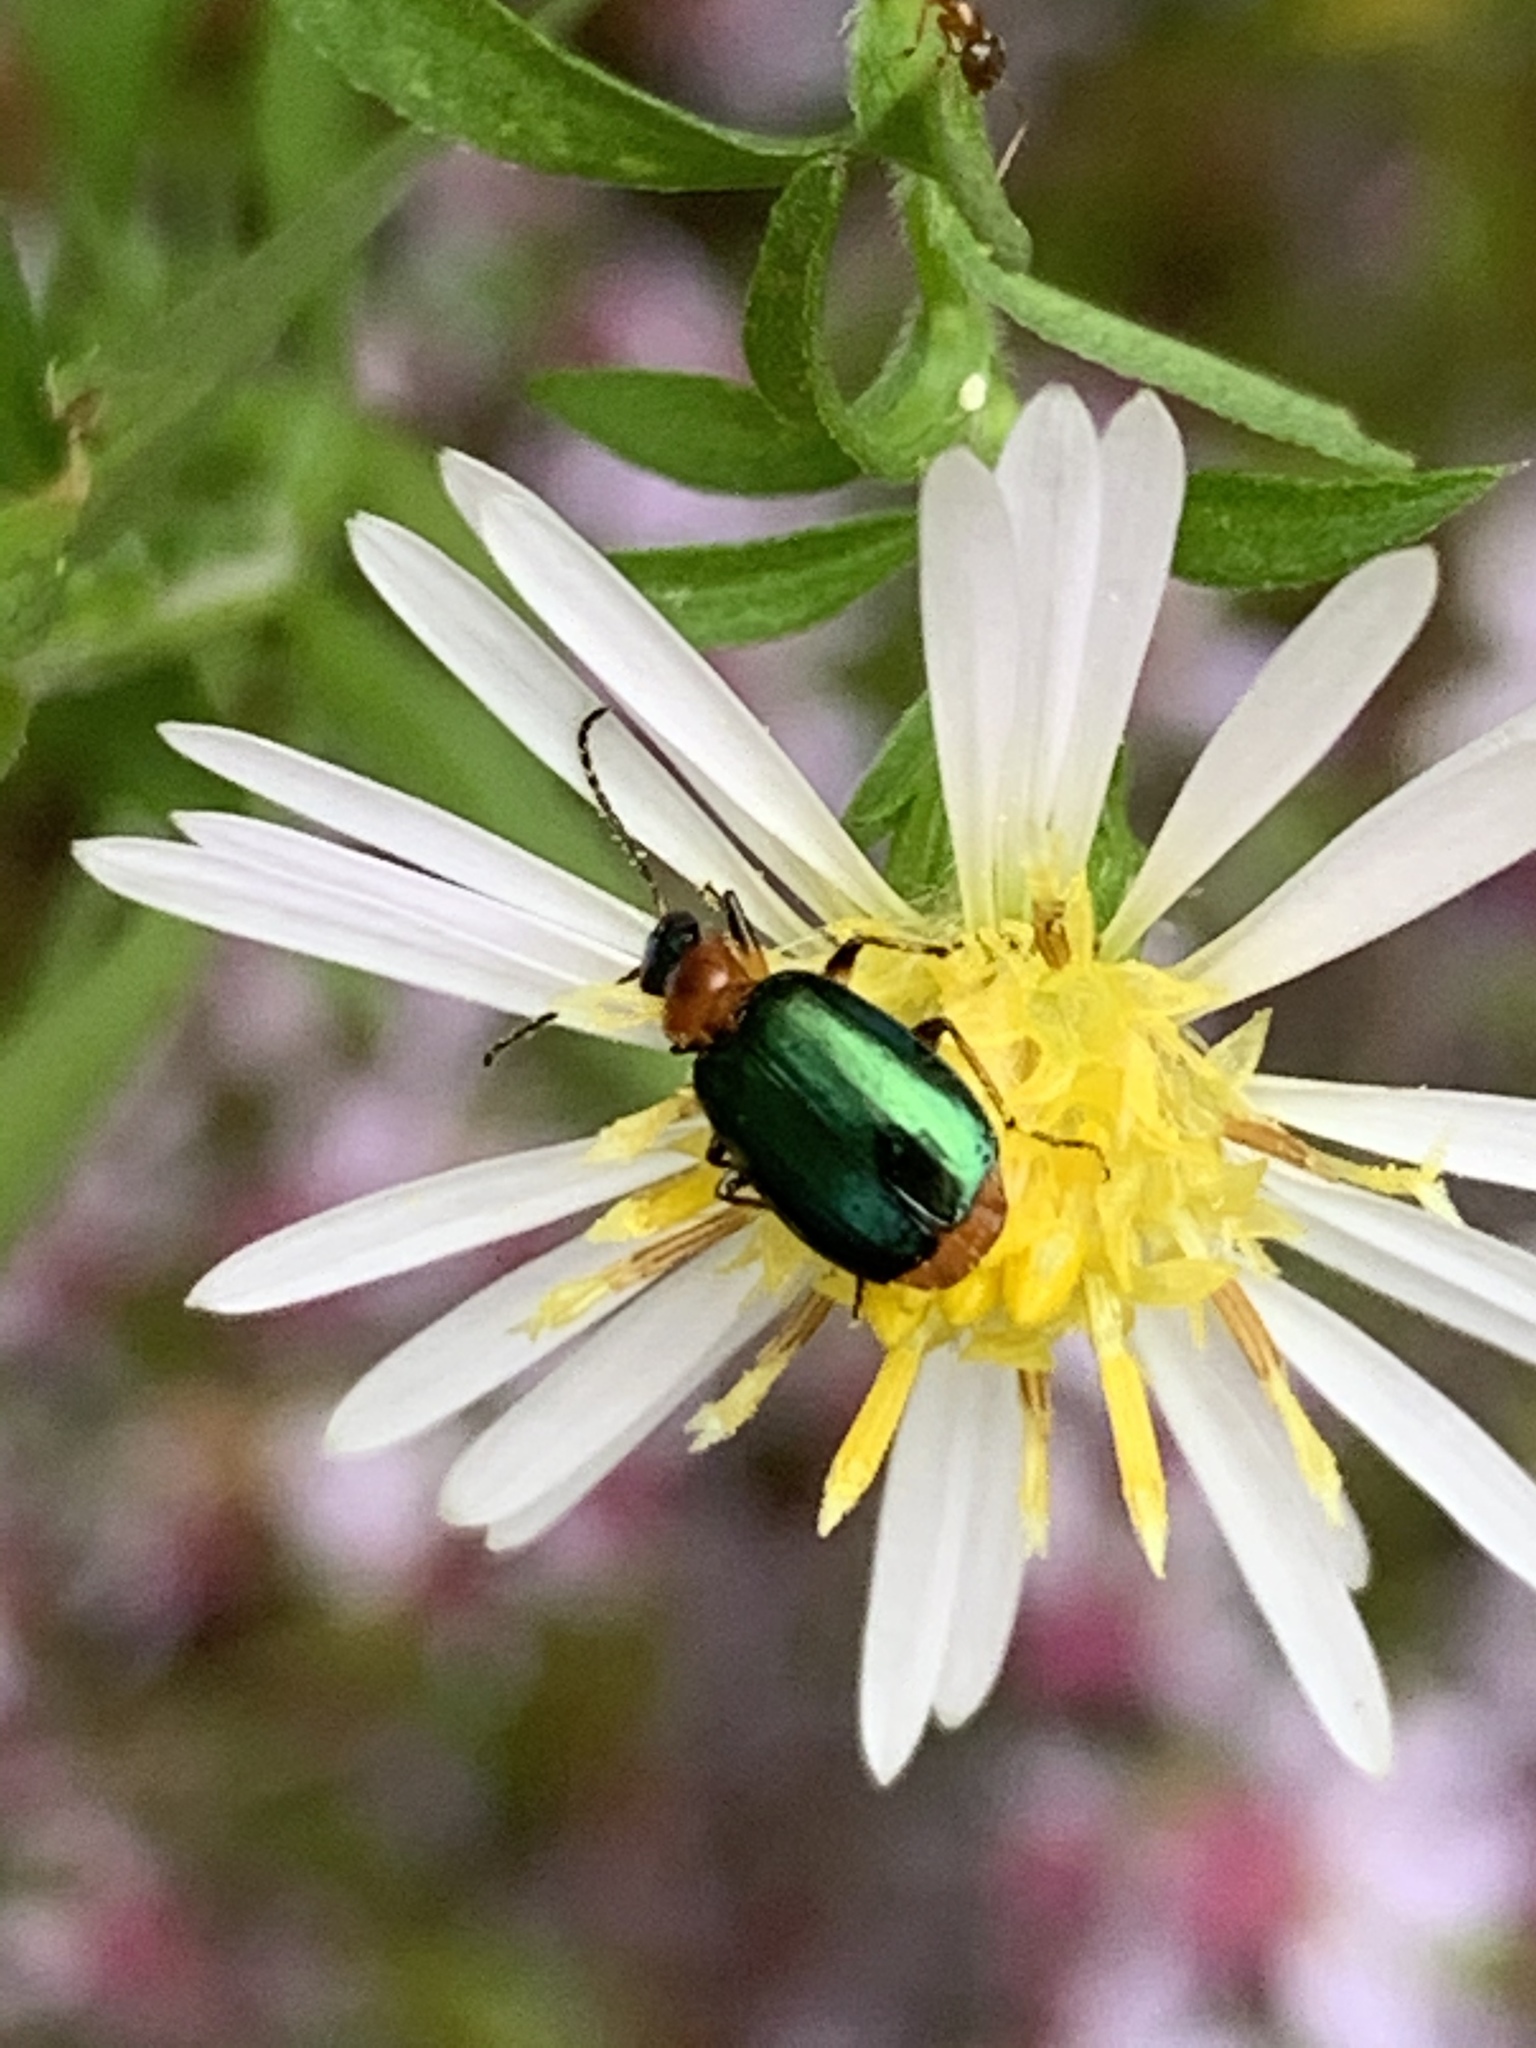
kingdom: Animalia
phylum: Arthropoda
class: Insecta
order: Coleoptera
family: Carabidae
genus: Lebia
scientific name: Lebia viridipennis
